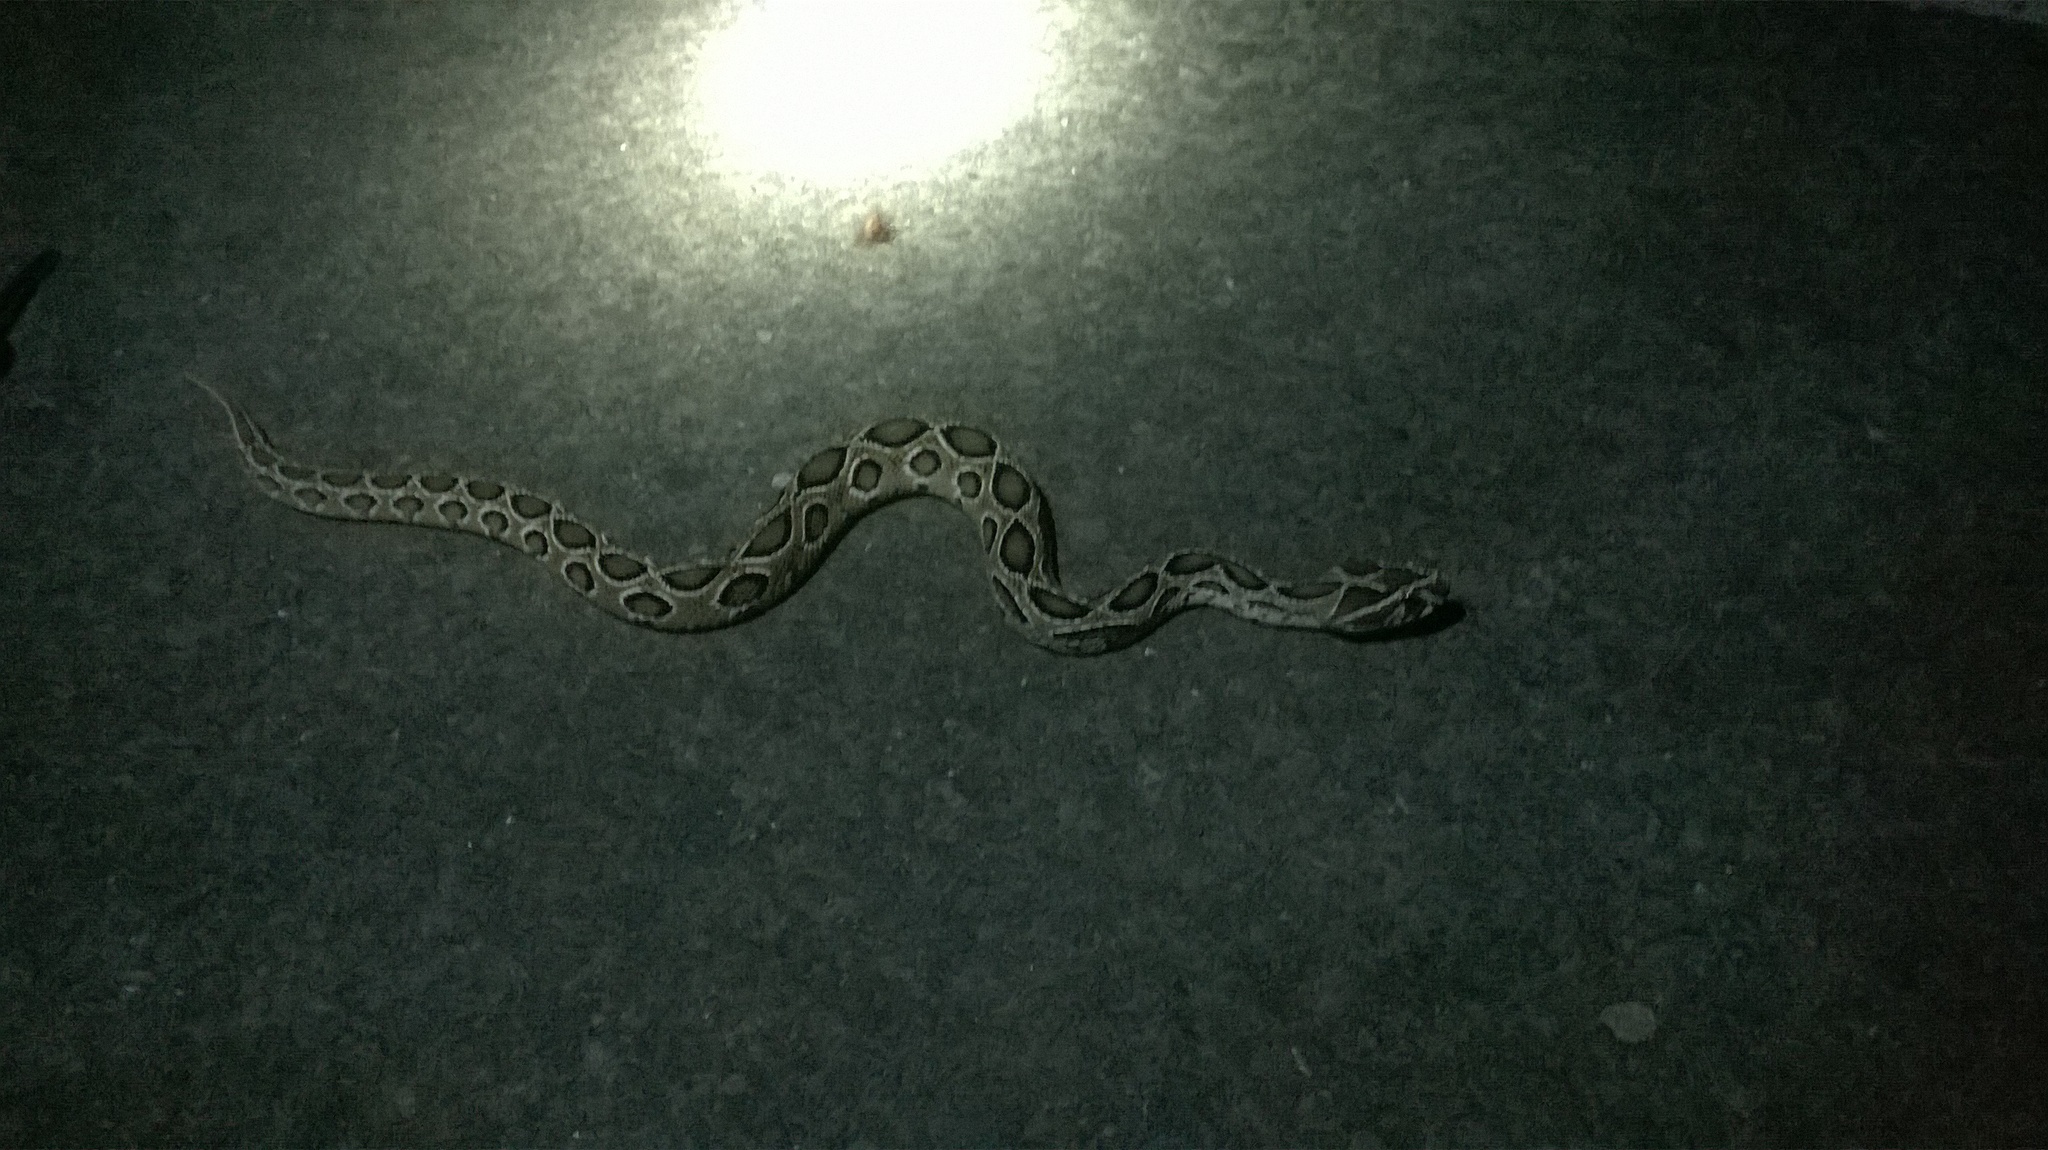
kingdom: Animalia
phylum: Chordata
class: Squamata
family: Viperidae
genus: Daboia
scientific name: Daboia russelii
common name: Western russel’s viper
